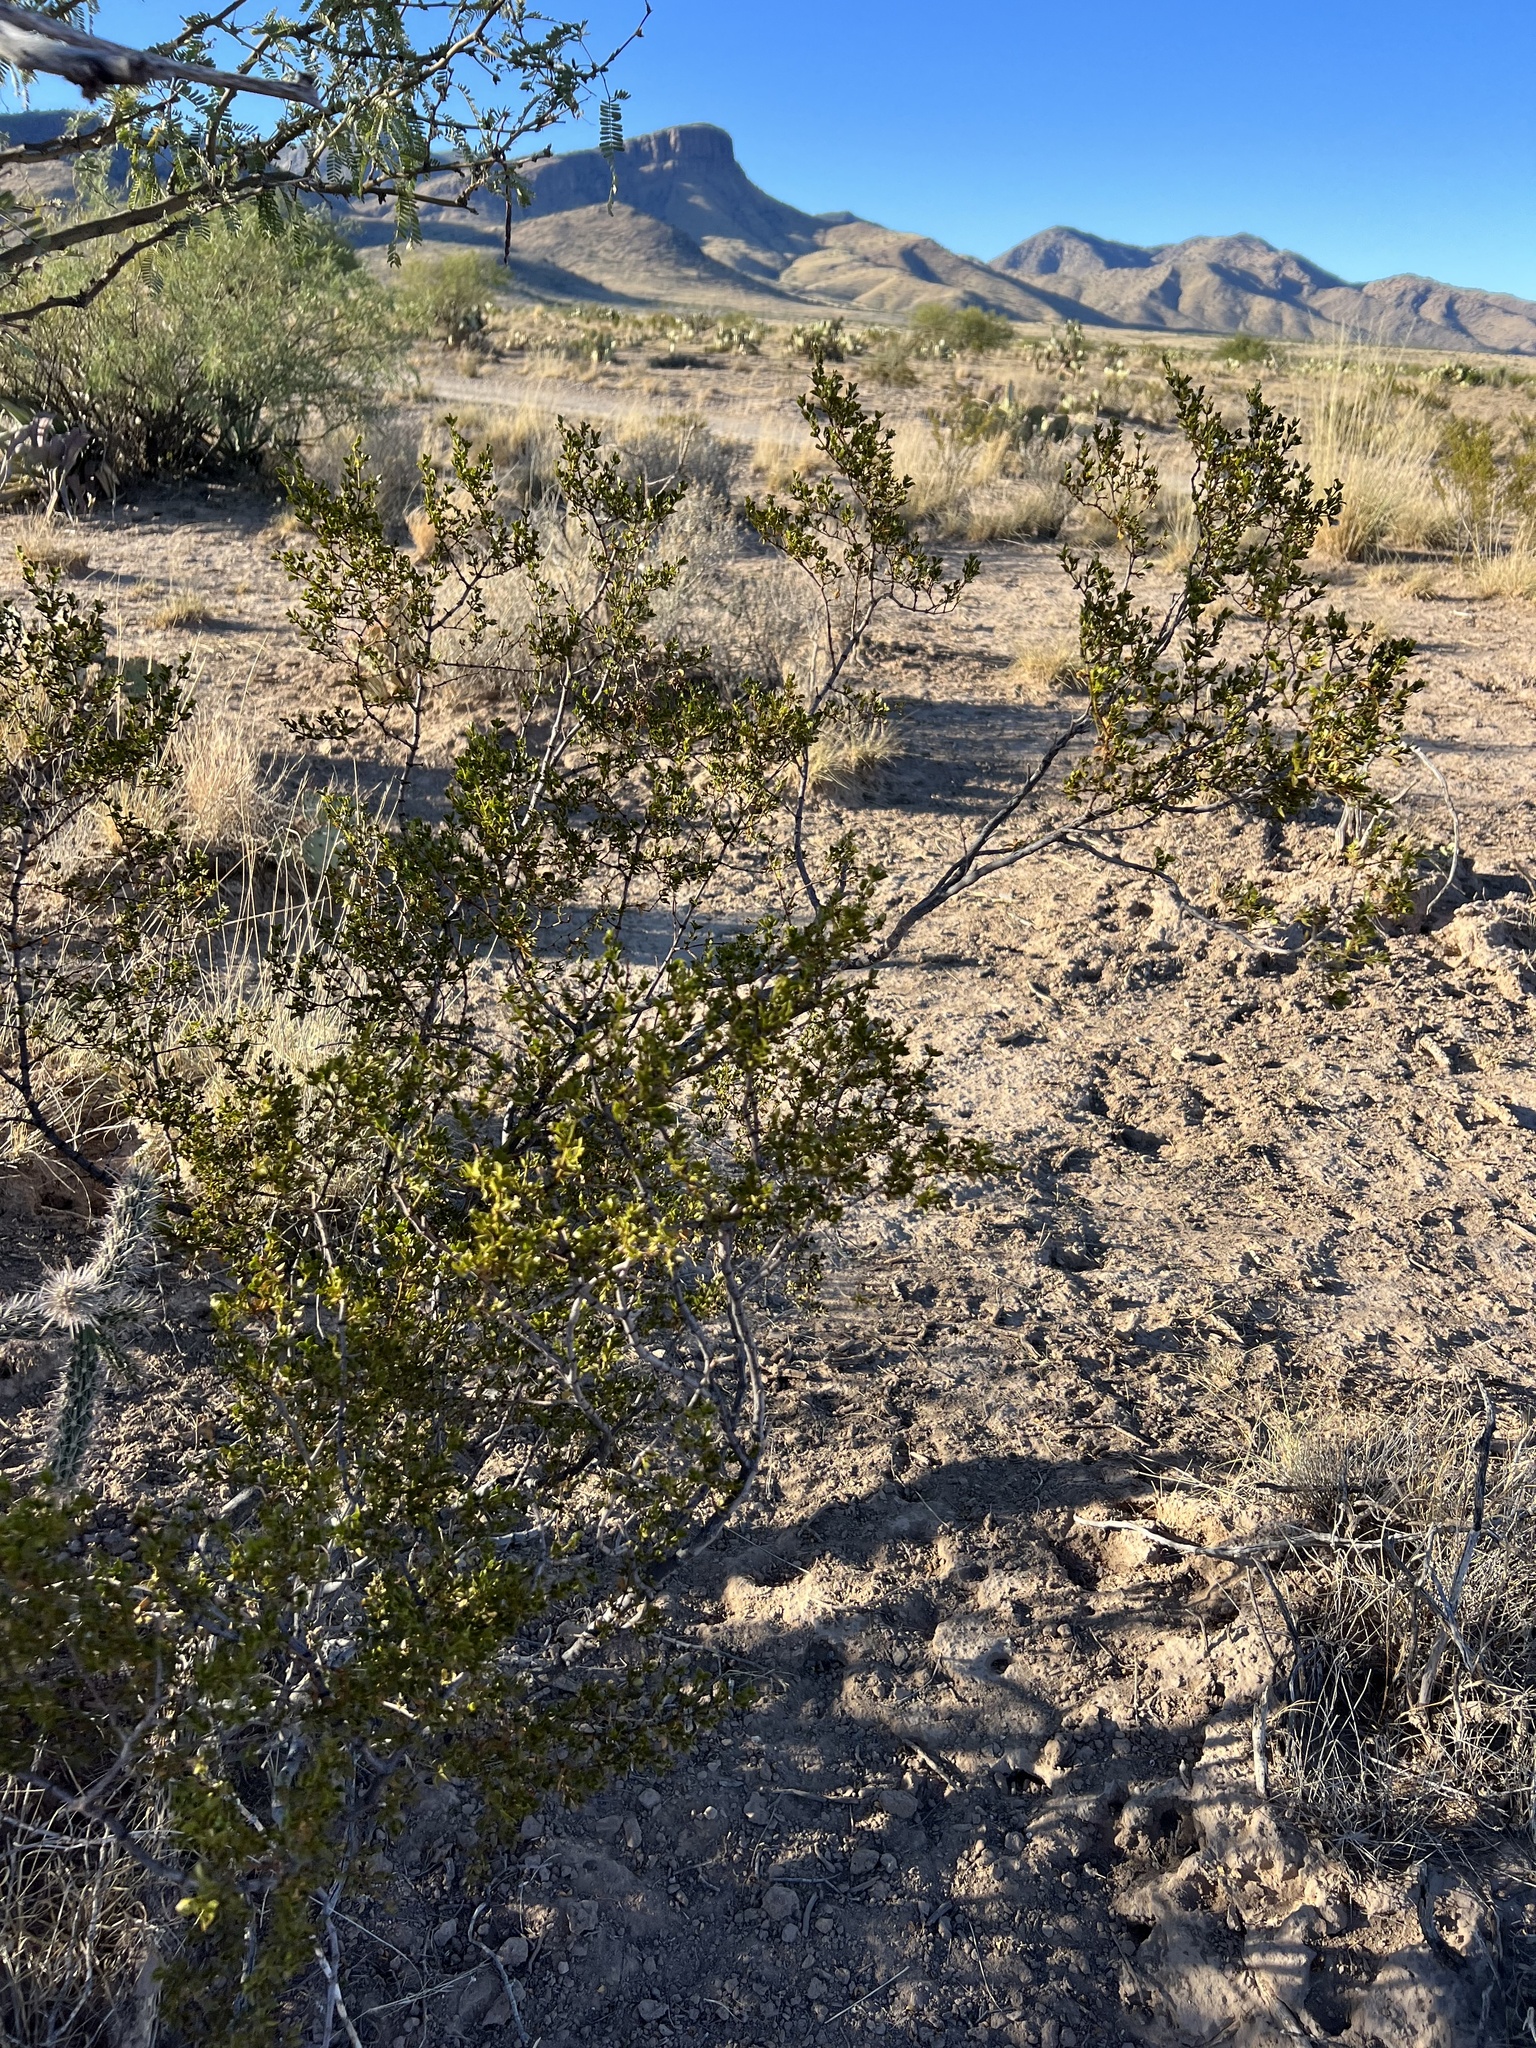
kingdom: Plantae
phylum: Tracheophyta
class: Magnoliopsida
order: Zygophyllales
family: Zygophyllaceae
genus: Larrea
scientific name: Larrea tridentata
